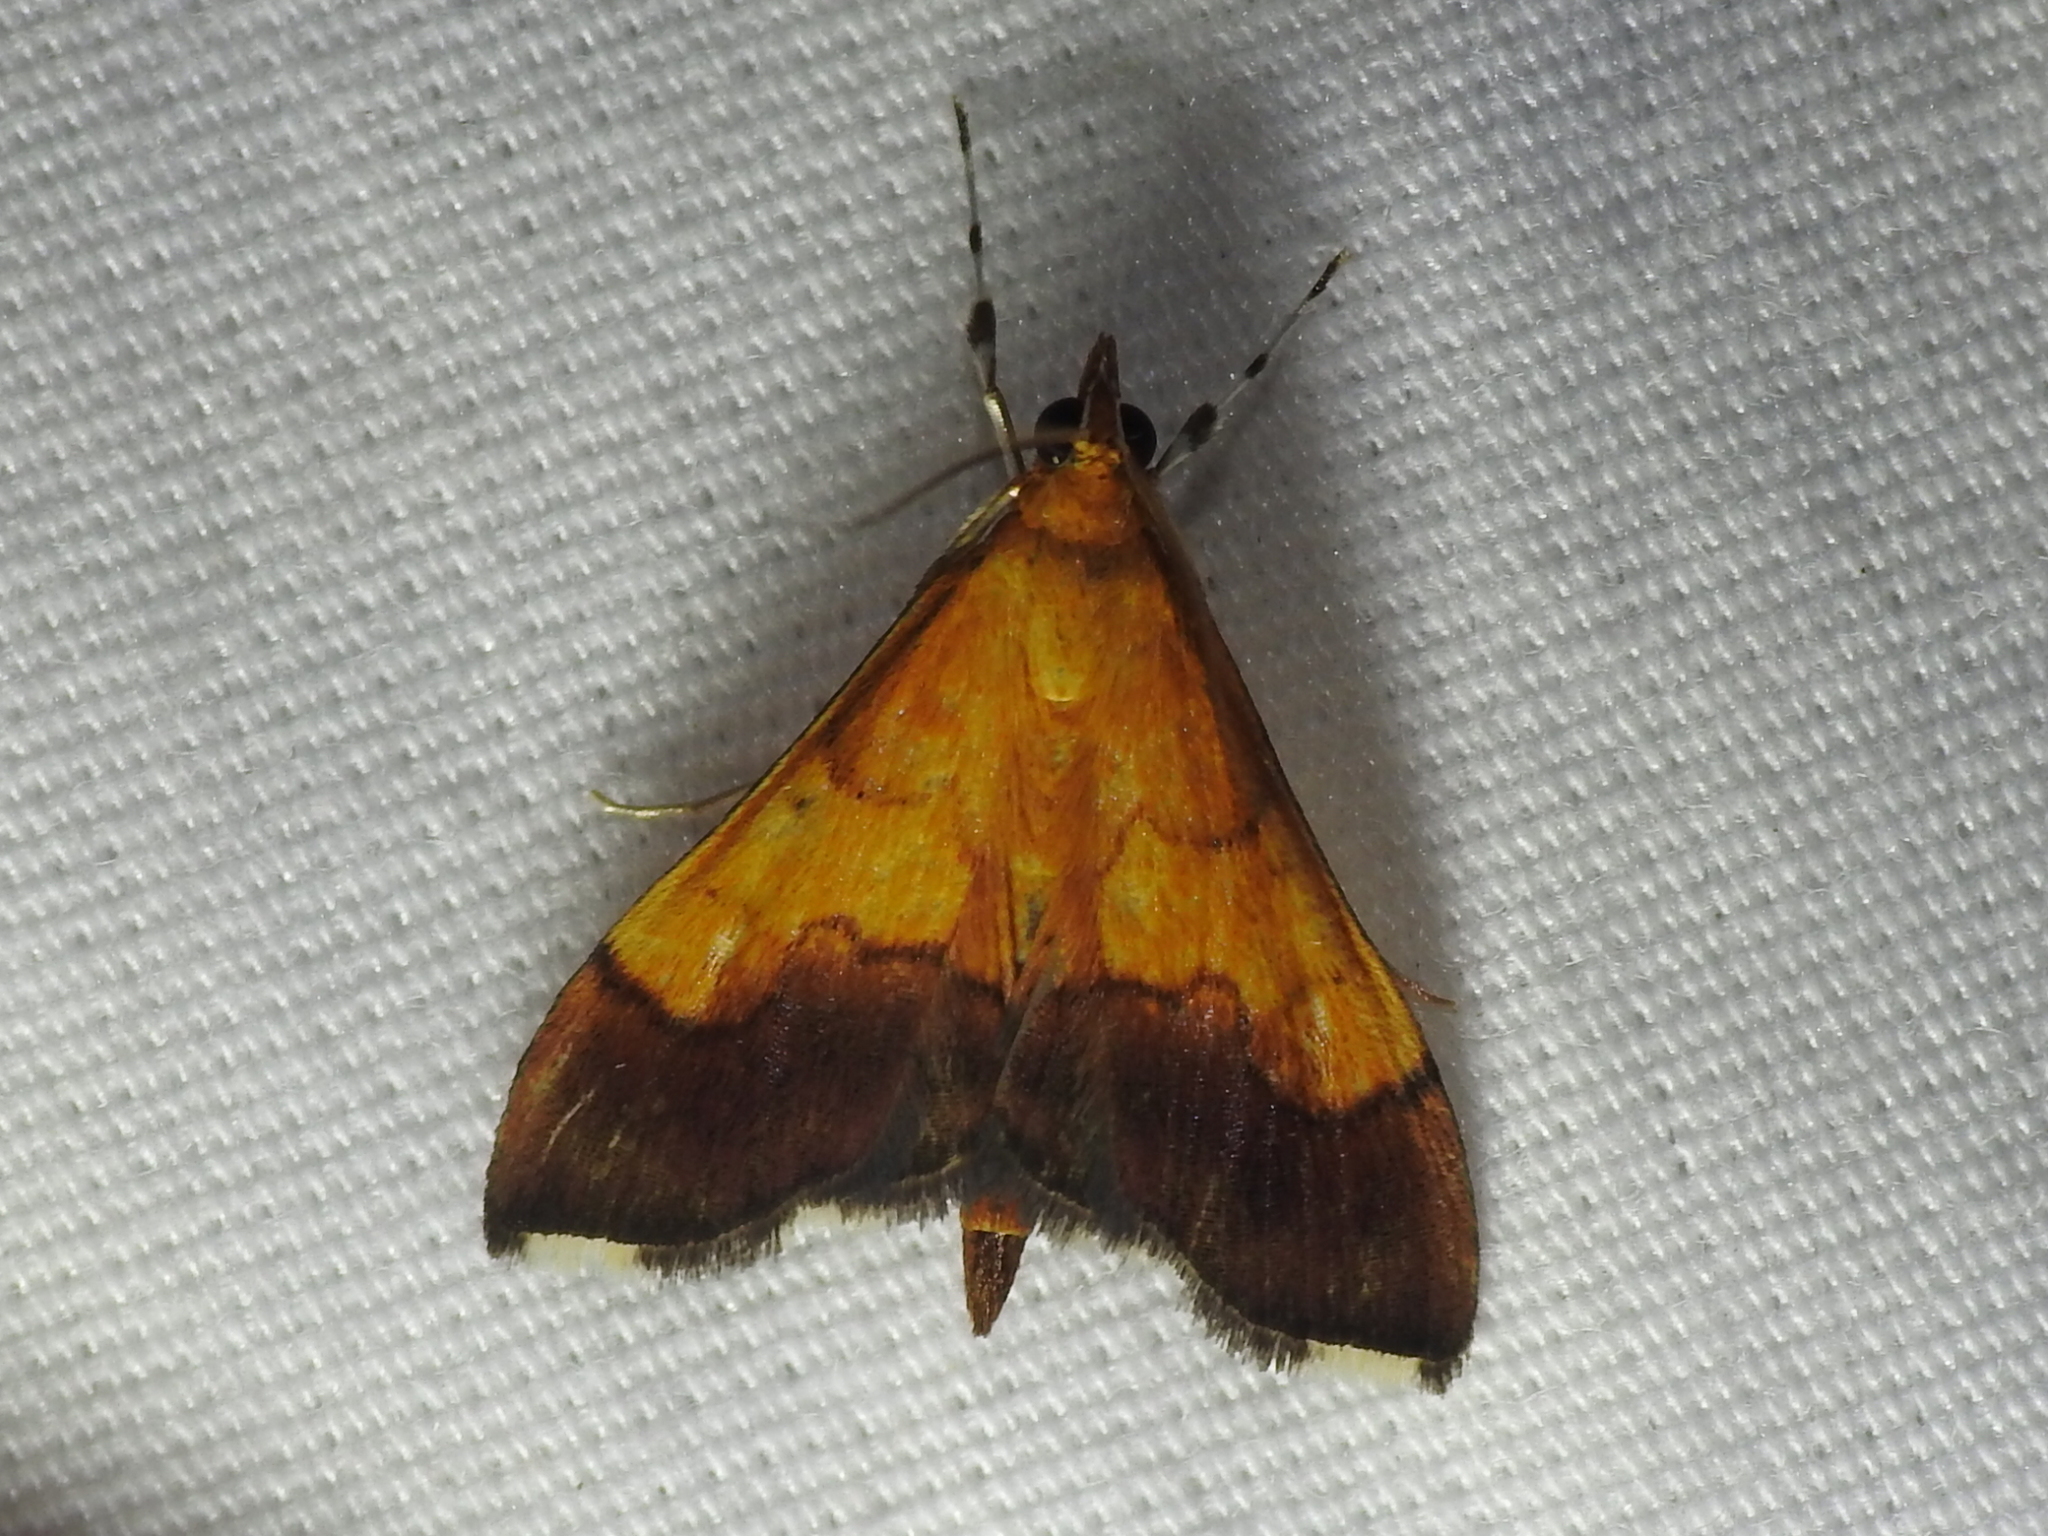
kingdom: Animalia
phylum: Arthropoda
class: Insecta
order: Lepidoptera
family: Crambidae
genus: Pyrausta
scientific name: Pyrausta bicoloralis
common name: Bicolored pyrausta moth
